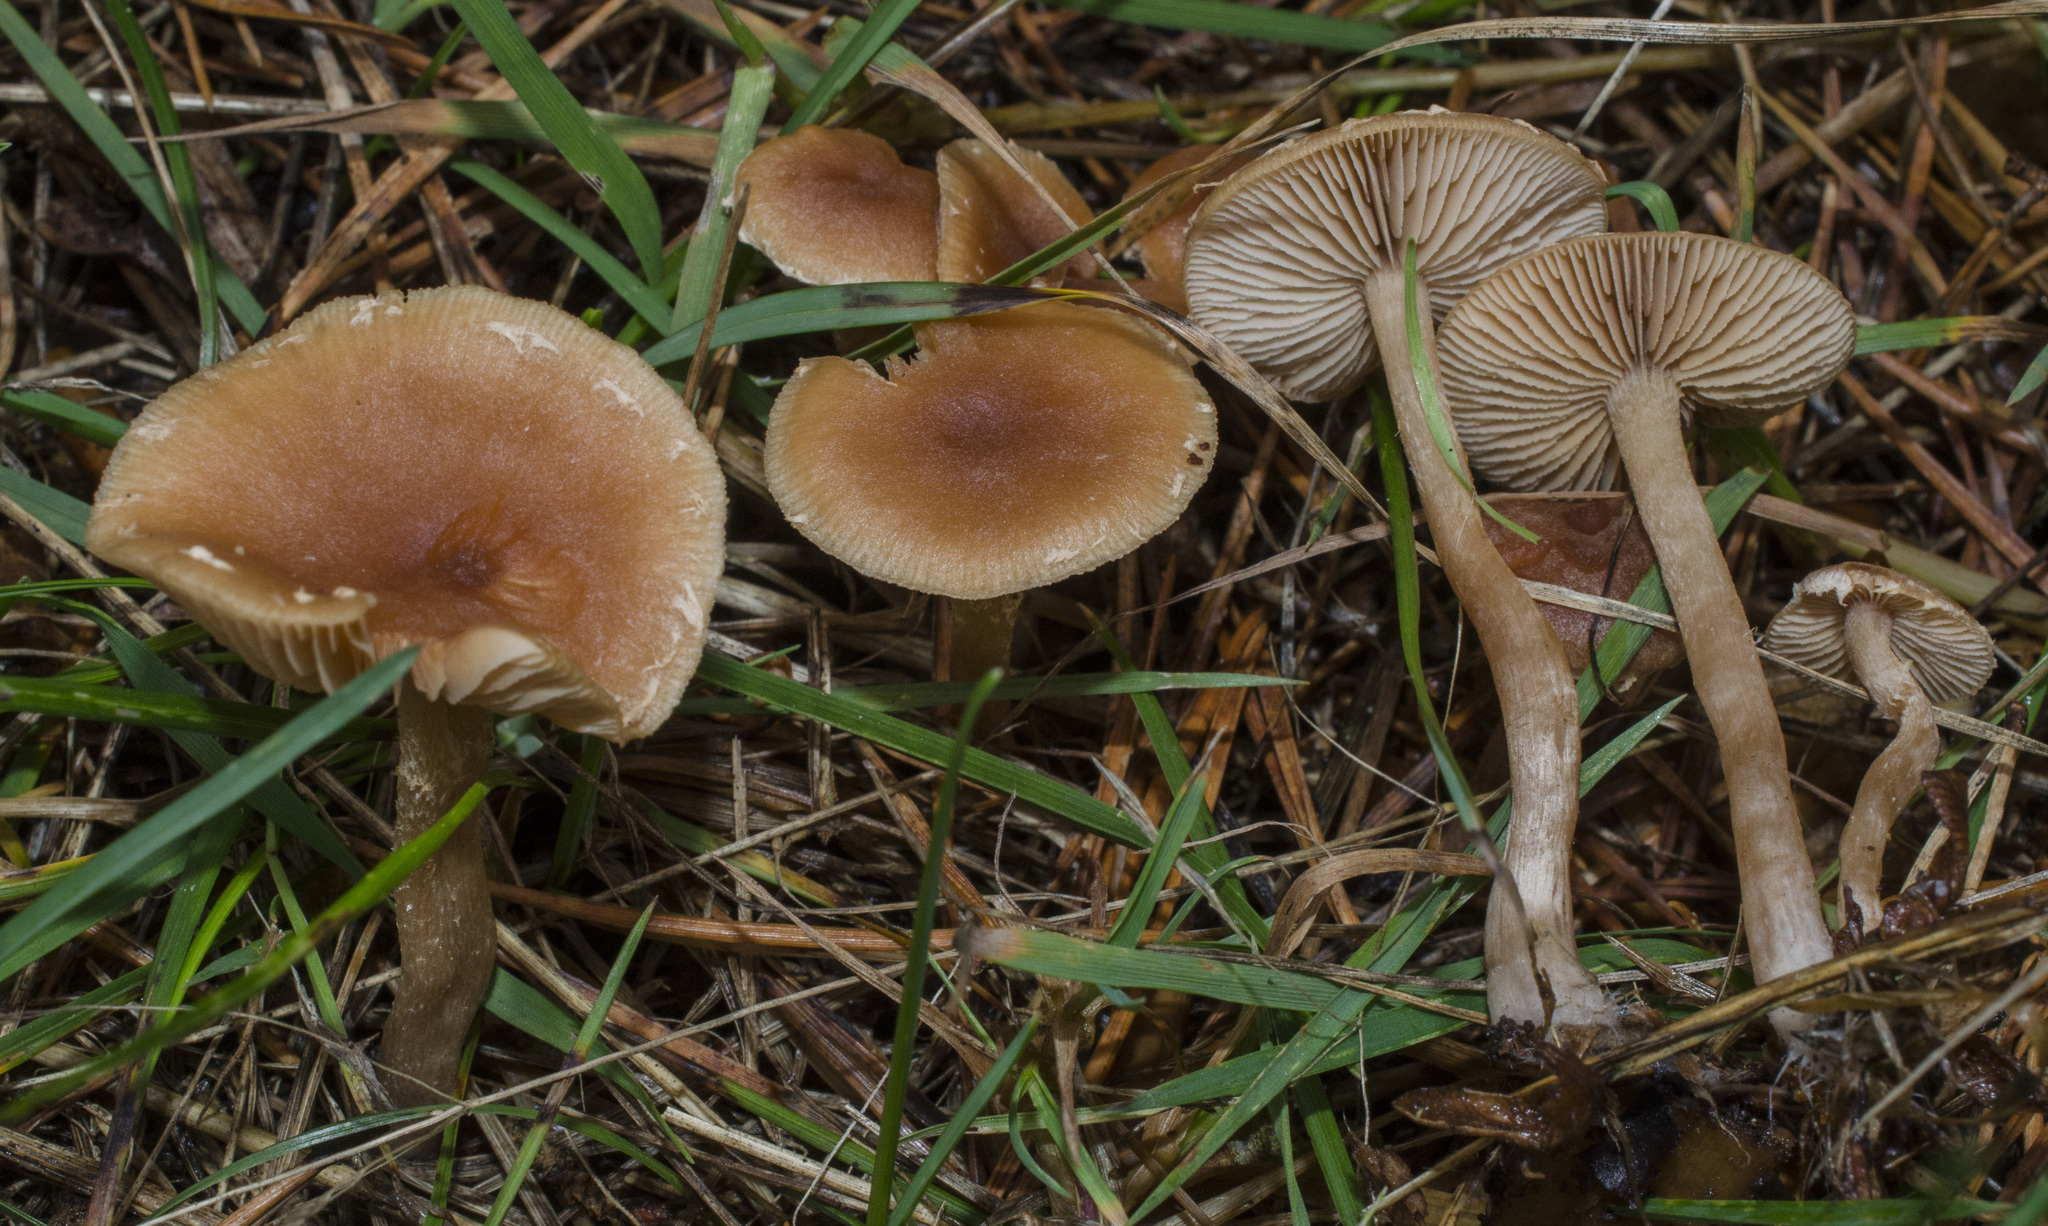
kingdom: Fungi
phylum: Basidiomycota
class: Agaricomycetes
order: Agaricales
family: Tubariaceae
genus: Tubaria
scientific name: Tubaria furfuracea
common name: Scurfy twiglet
